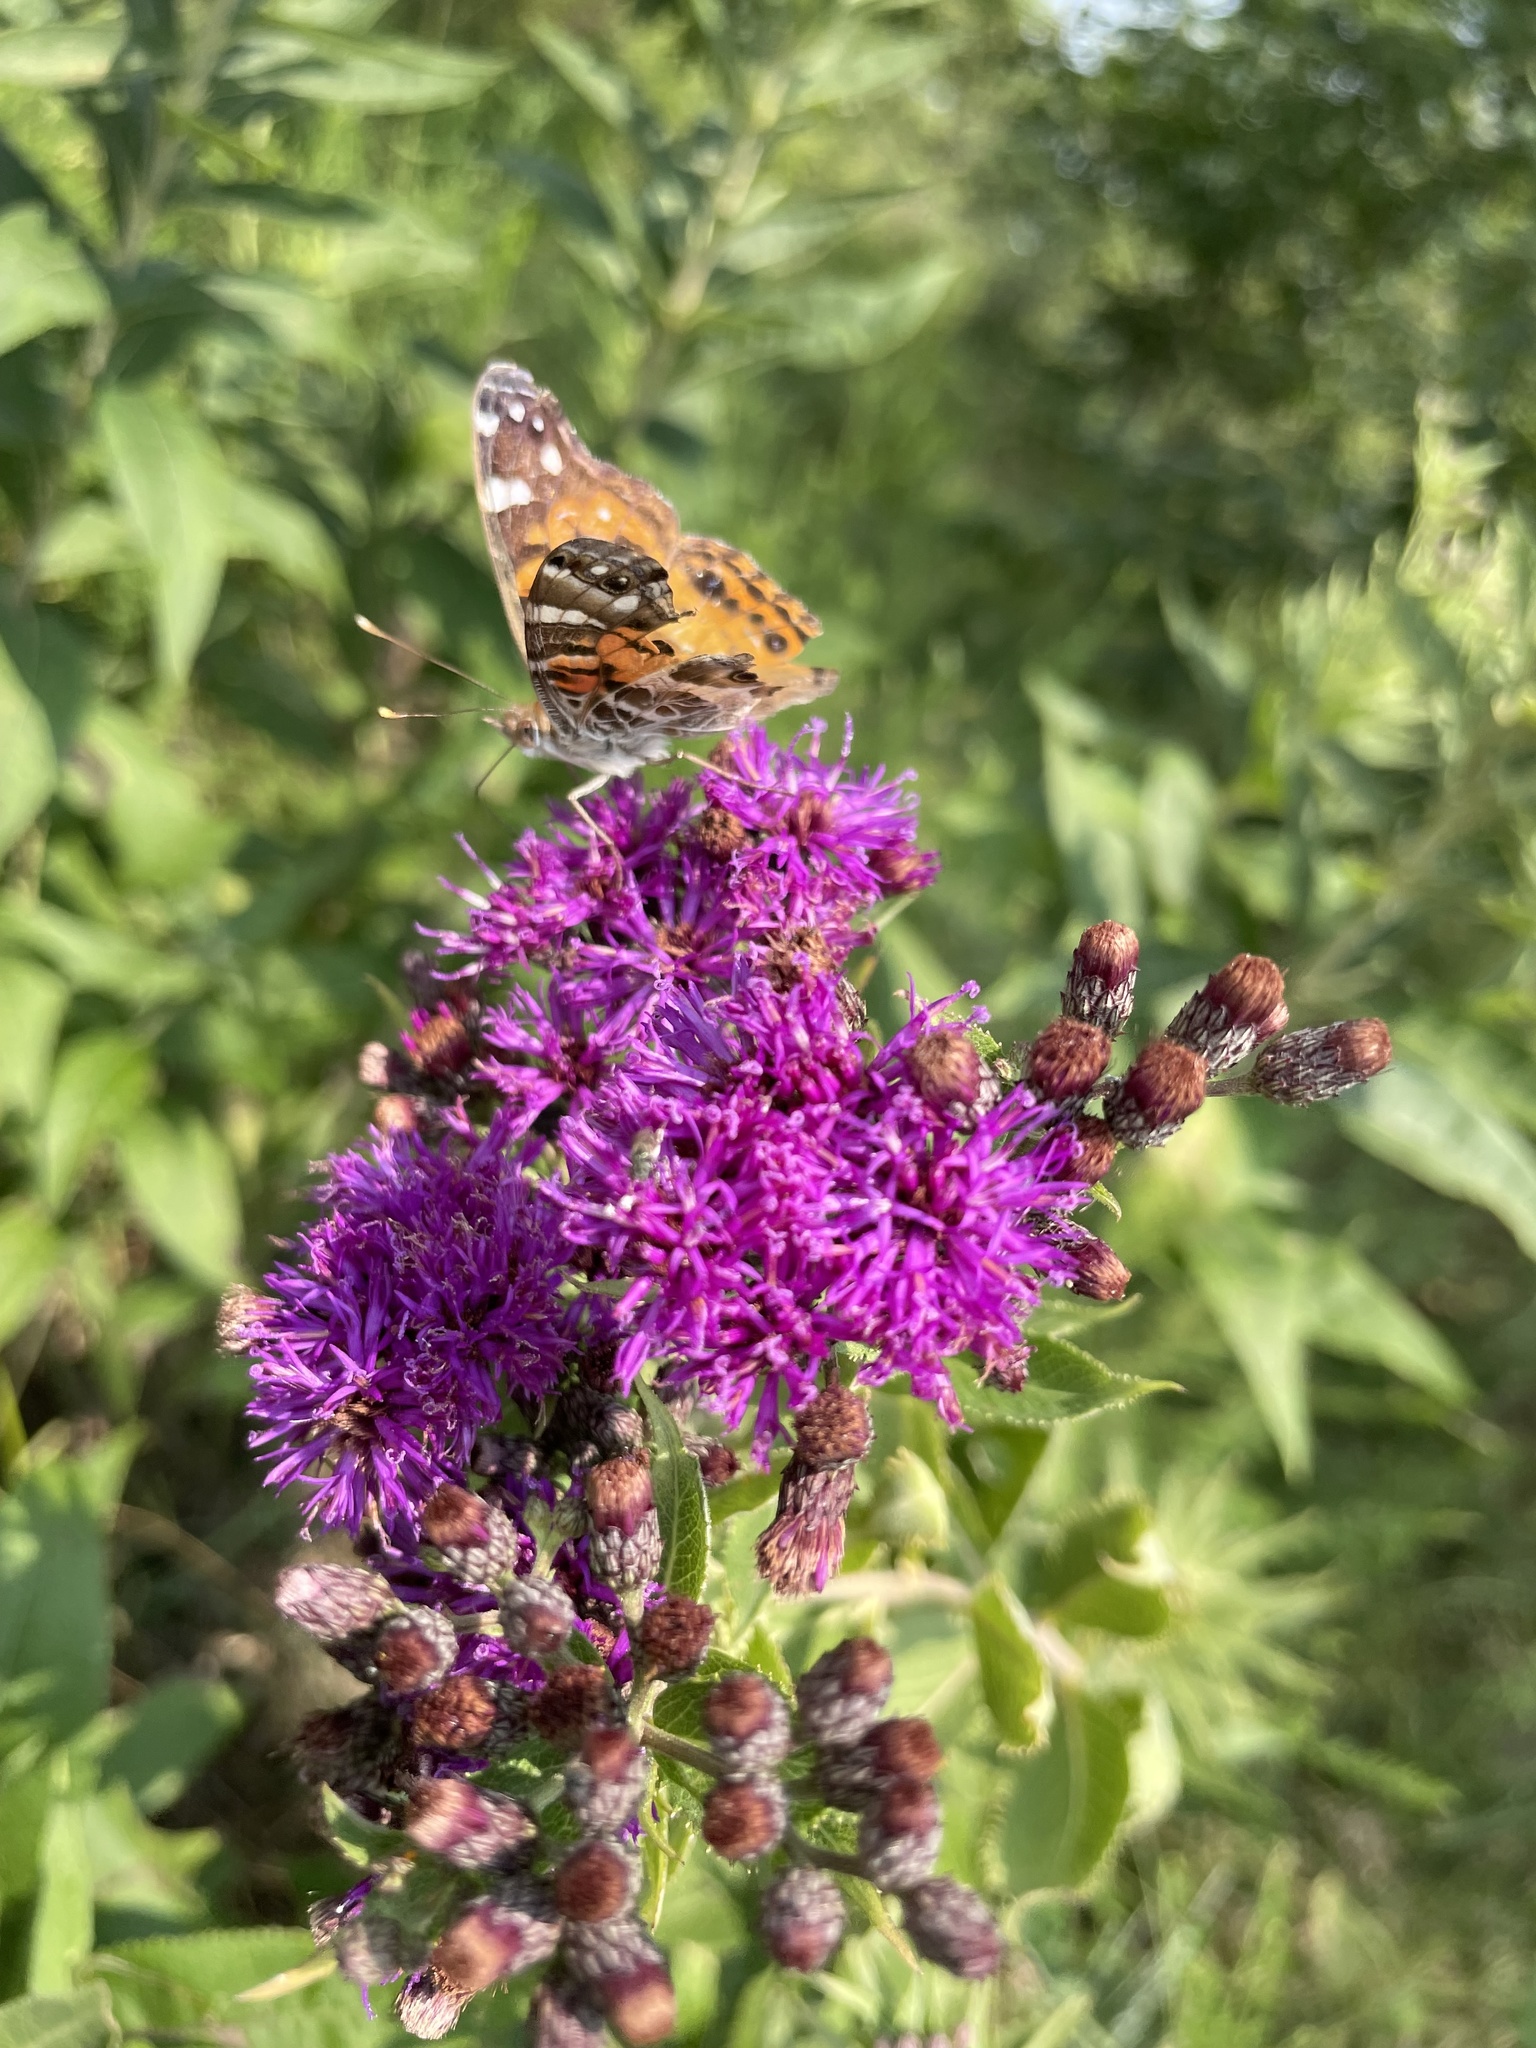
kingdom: Animalia
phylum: Arthropoda
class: Insecta
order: Lepidoptera
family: Nymphalidae
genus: Vanessa
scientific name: Vanessa virginiensis
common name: American lady
